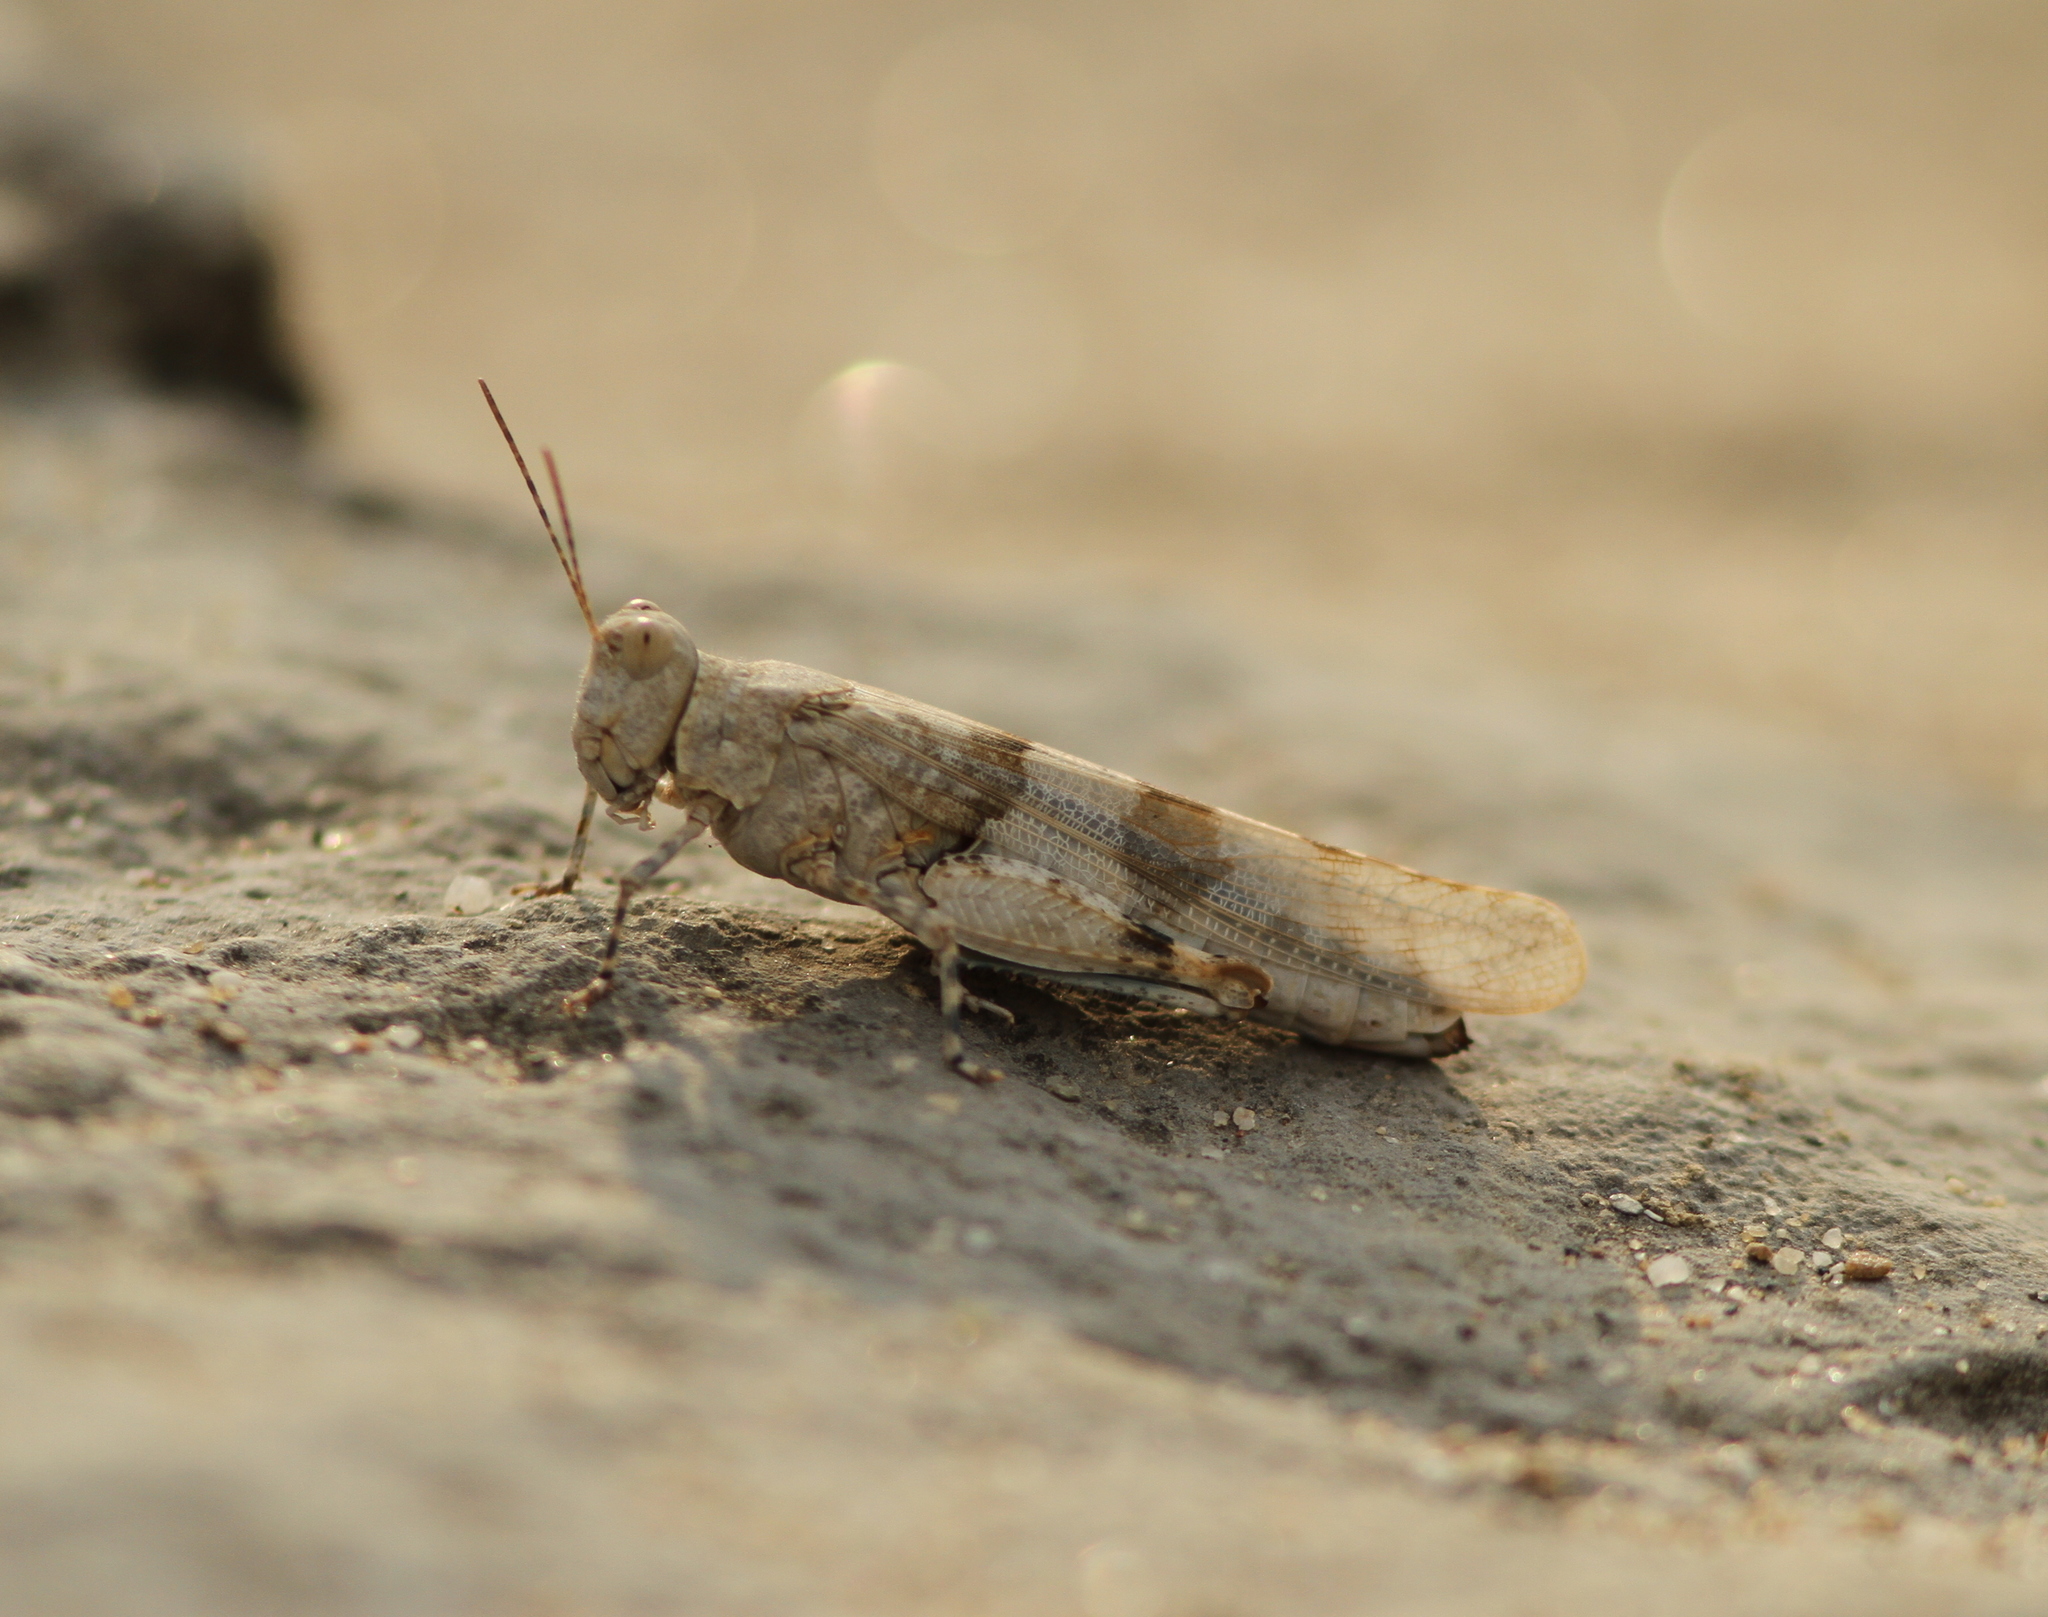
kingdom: Animalia
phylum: Arthropoda
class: Insecta
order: Orthoptera
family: Acrididae
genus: Sphingonotus
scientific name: Sphingonotus caerulans
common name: Blue-winged locust
